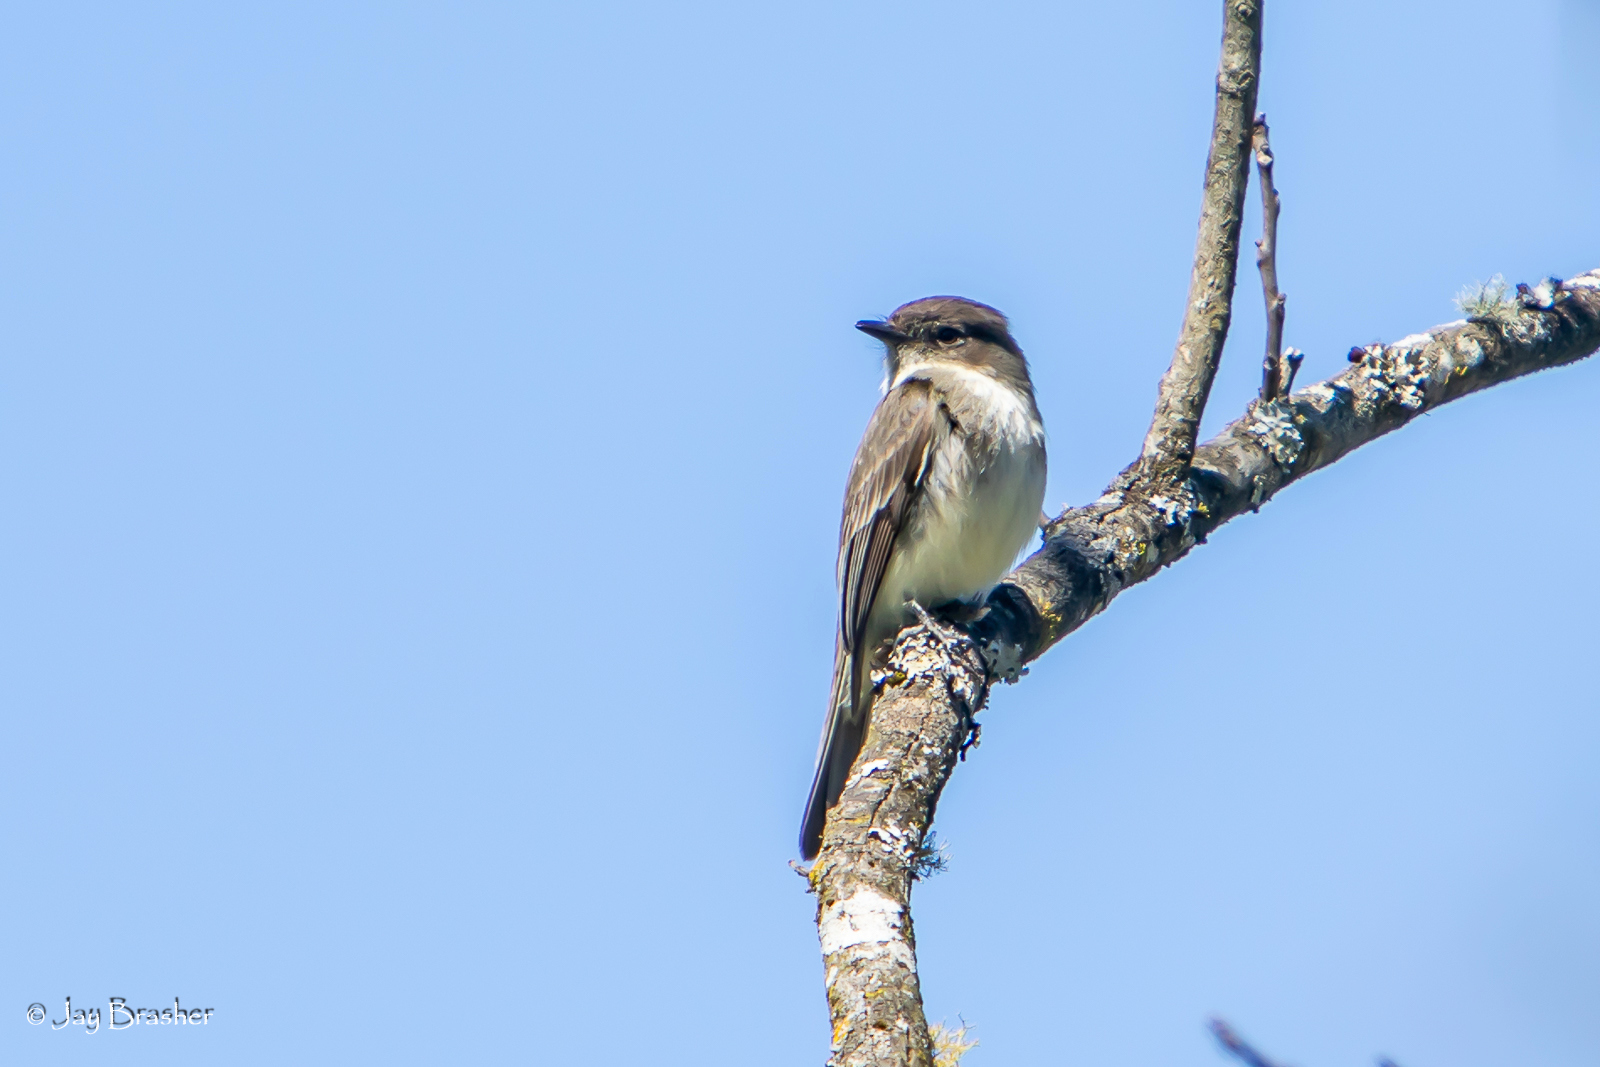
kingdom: Animalia
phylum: Chordata
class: Aves
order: Passeriformes
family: Tyrannidae
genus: Sayornis
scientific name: Sayornis phoebe
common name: Eastern phoebe
